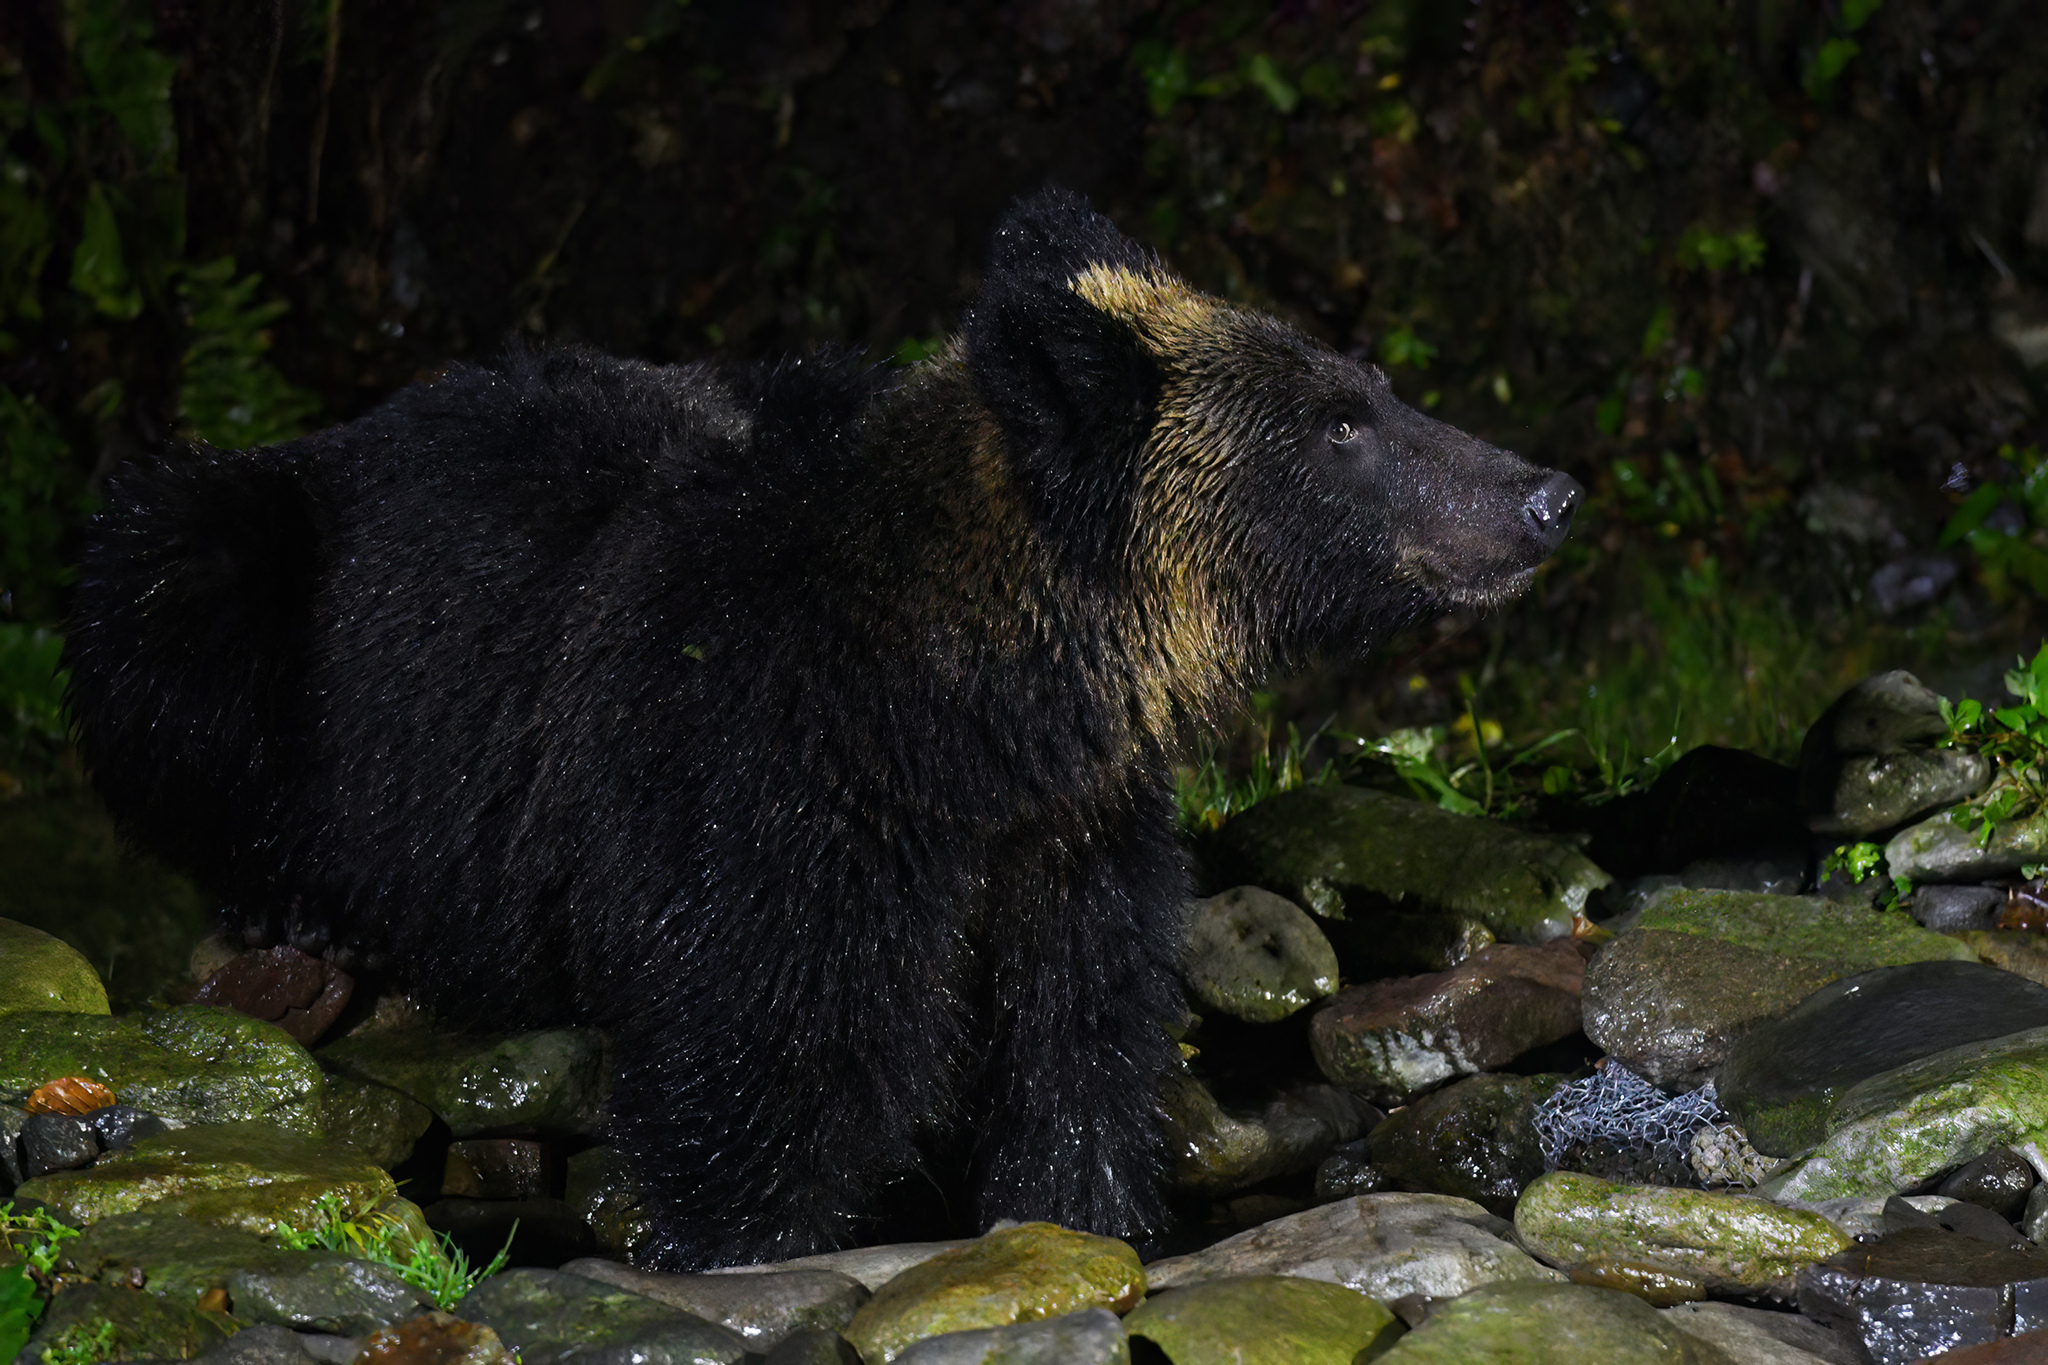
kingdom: Animalia
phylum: Chordata
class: Mammalia
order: Carnivora
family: Ursidae
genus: Ursus
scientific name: Ursus arctos
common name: Brown bear
